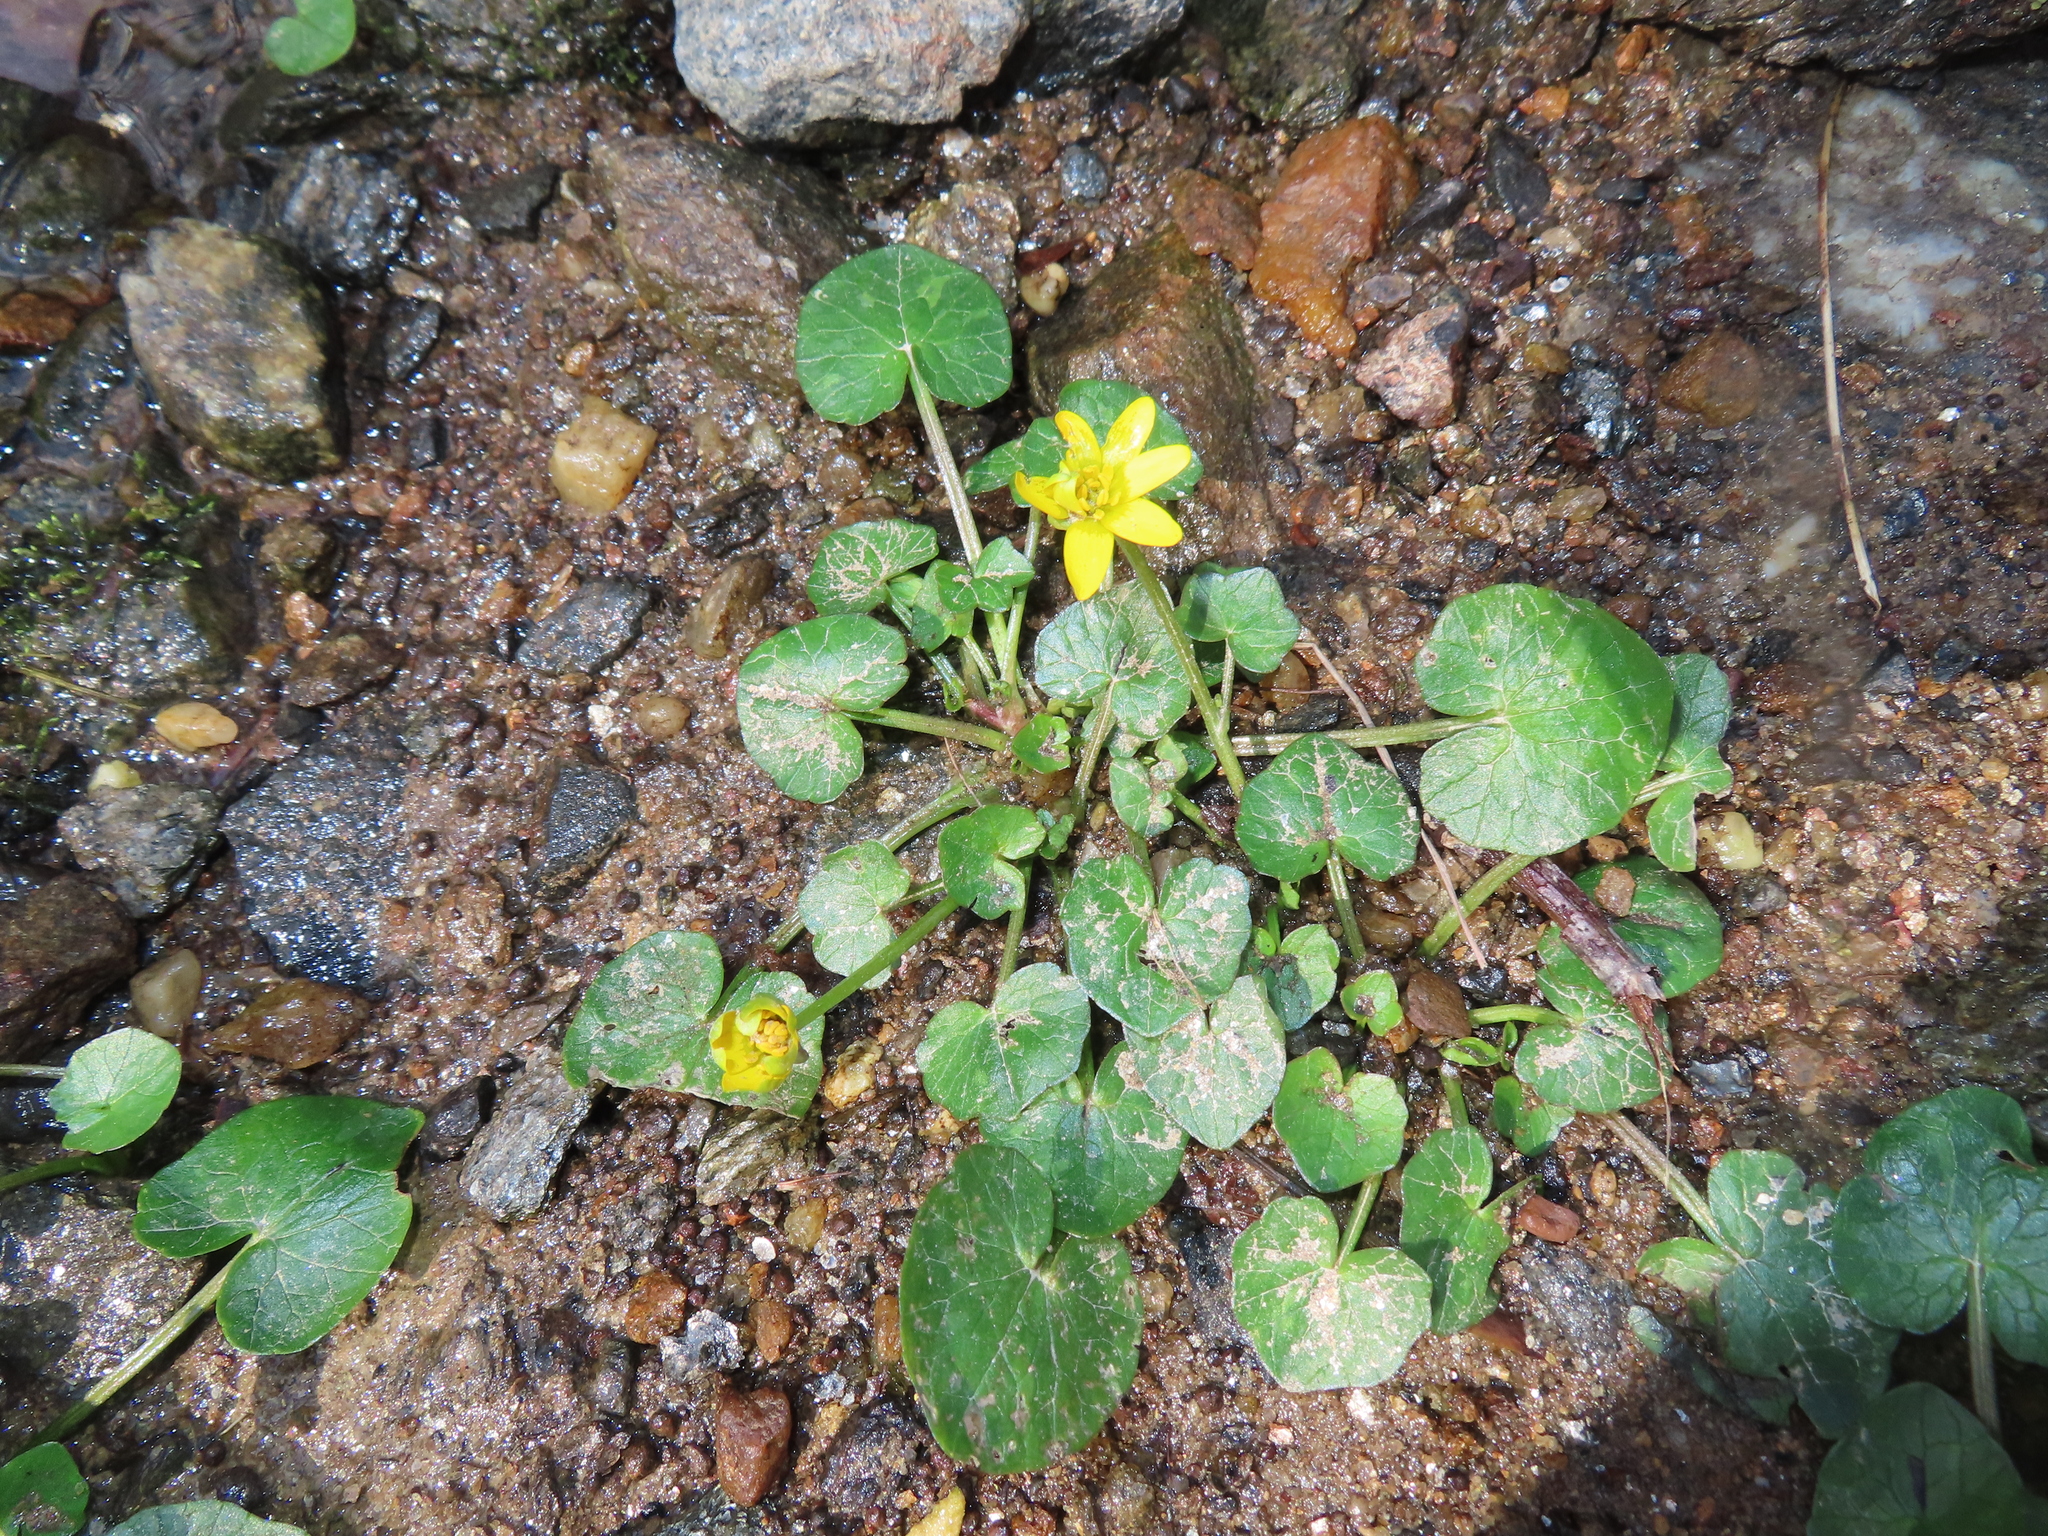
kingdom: Plantae
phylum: Tracheophyta
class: Magnoliopsida
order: Ranunculales
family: Ranunculaceae
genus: Ficaria
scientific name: Ficaria verna
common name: Lesser celandine
